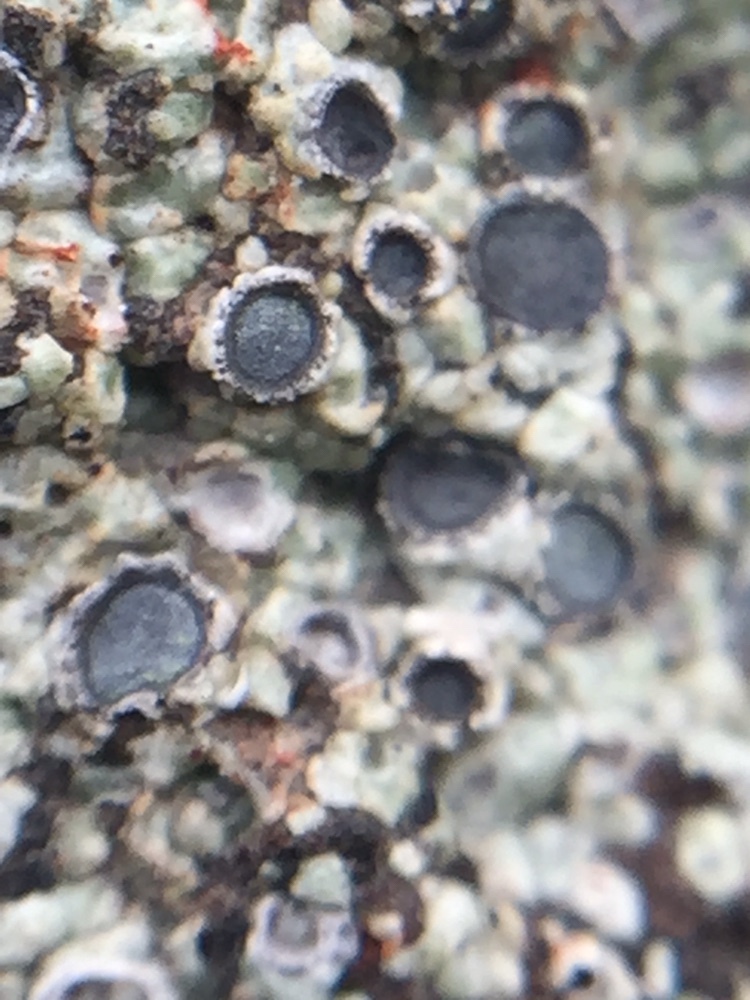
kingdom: Fungi
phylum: Ascomycota
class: Lecanoromycetes
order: Ostropales
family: Graphidaceae
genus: Diploschistes
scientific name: Diploschistes scruposus
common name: Crater lichen
